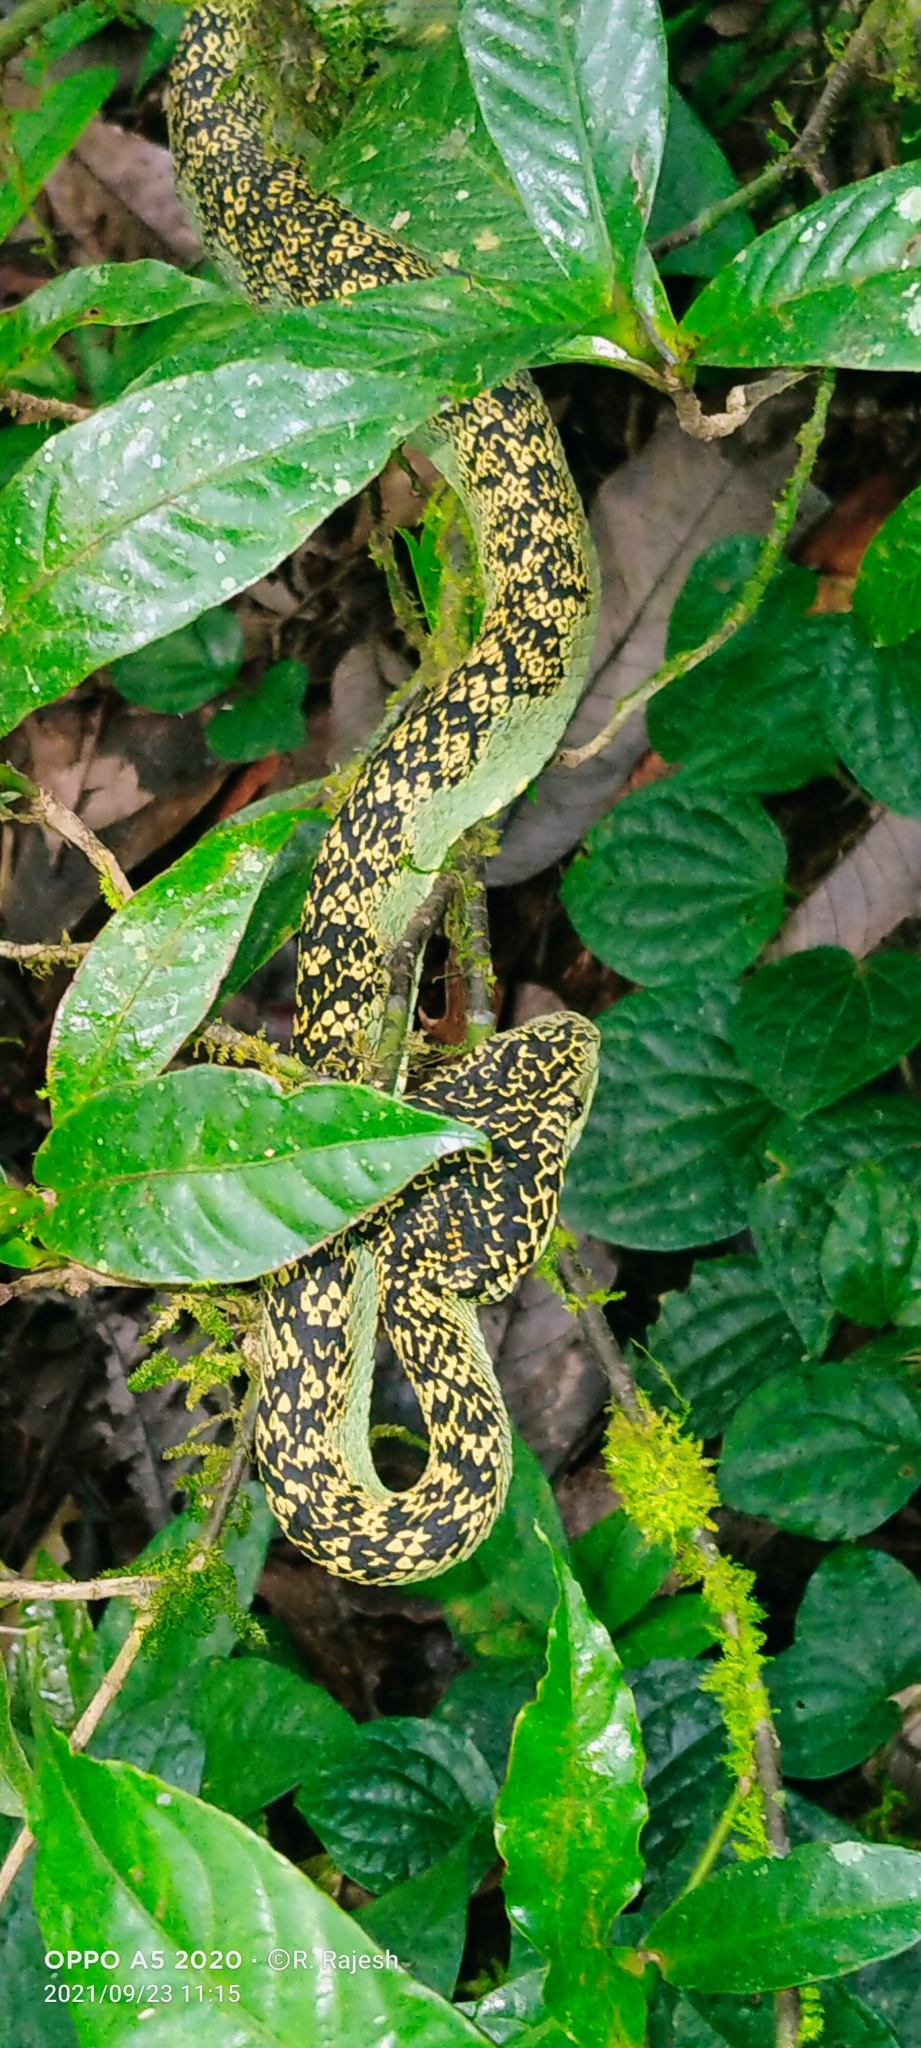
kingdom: Animalia
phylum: Chordata
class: Squamata
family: Viperidae
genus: Craspedocephalus
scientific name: Craspedocephalus anamallensis
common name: Malabarian pit viper
